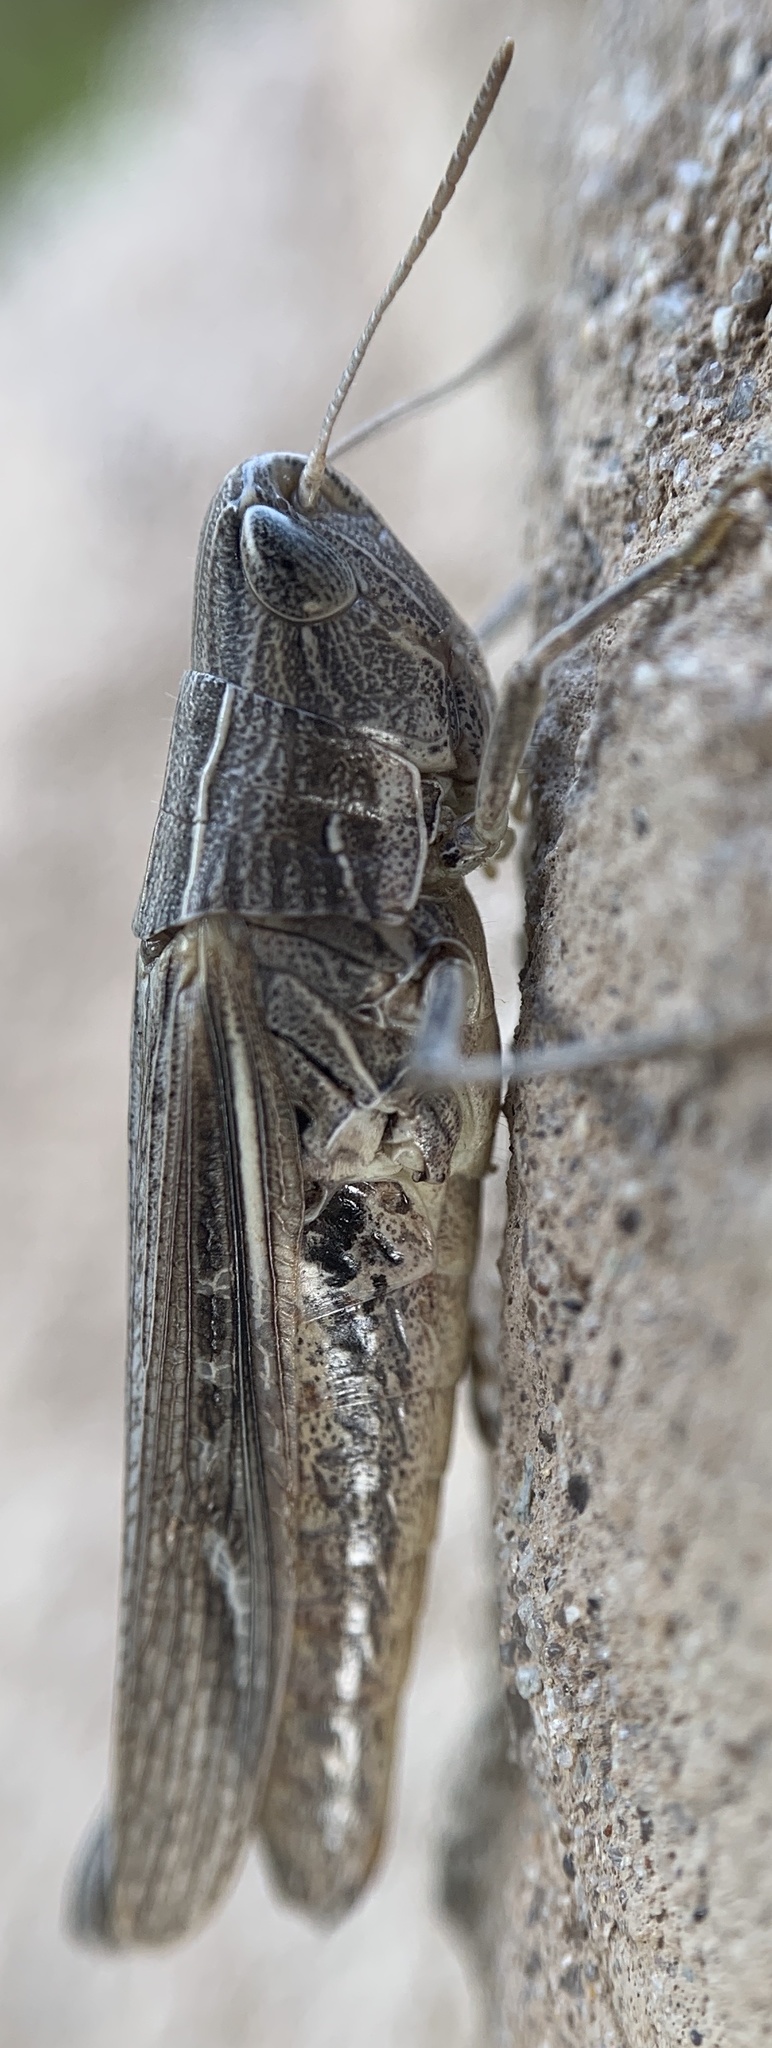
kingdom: Animalia
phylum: Arthropoda
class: Insecta
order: Orthoptera
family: Acrididae
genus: Eritettix
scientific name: Eritettix simplex
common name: Velvet-striped grasshopper
